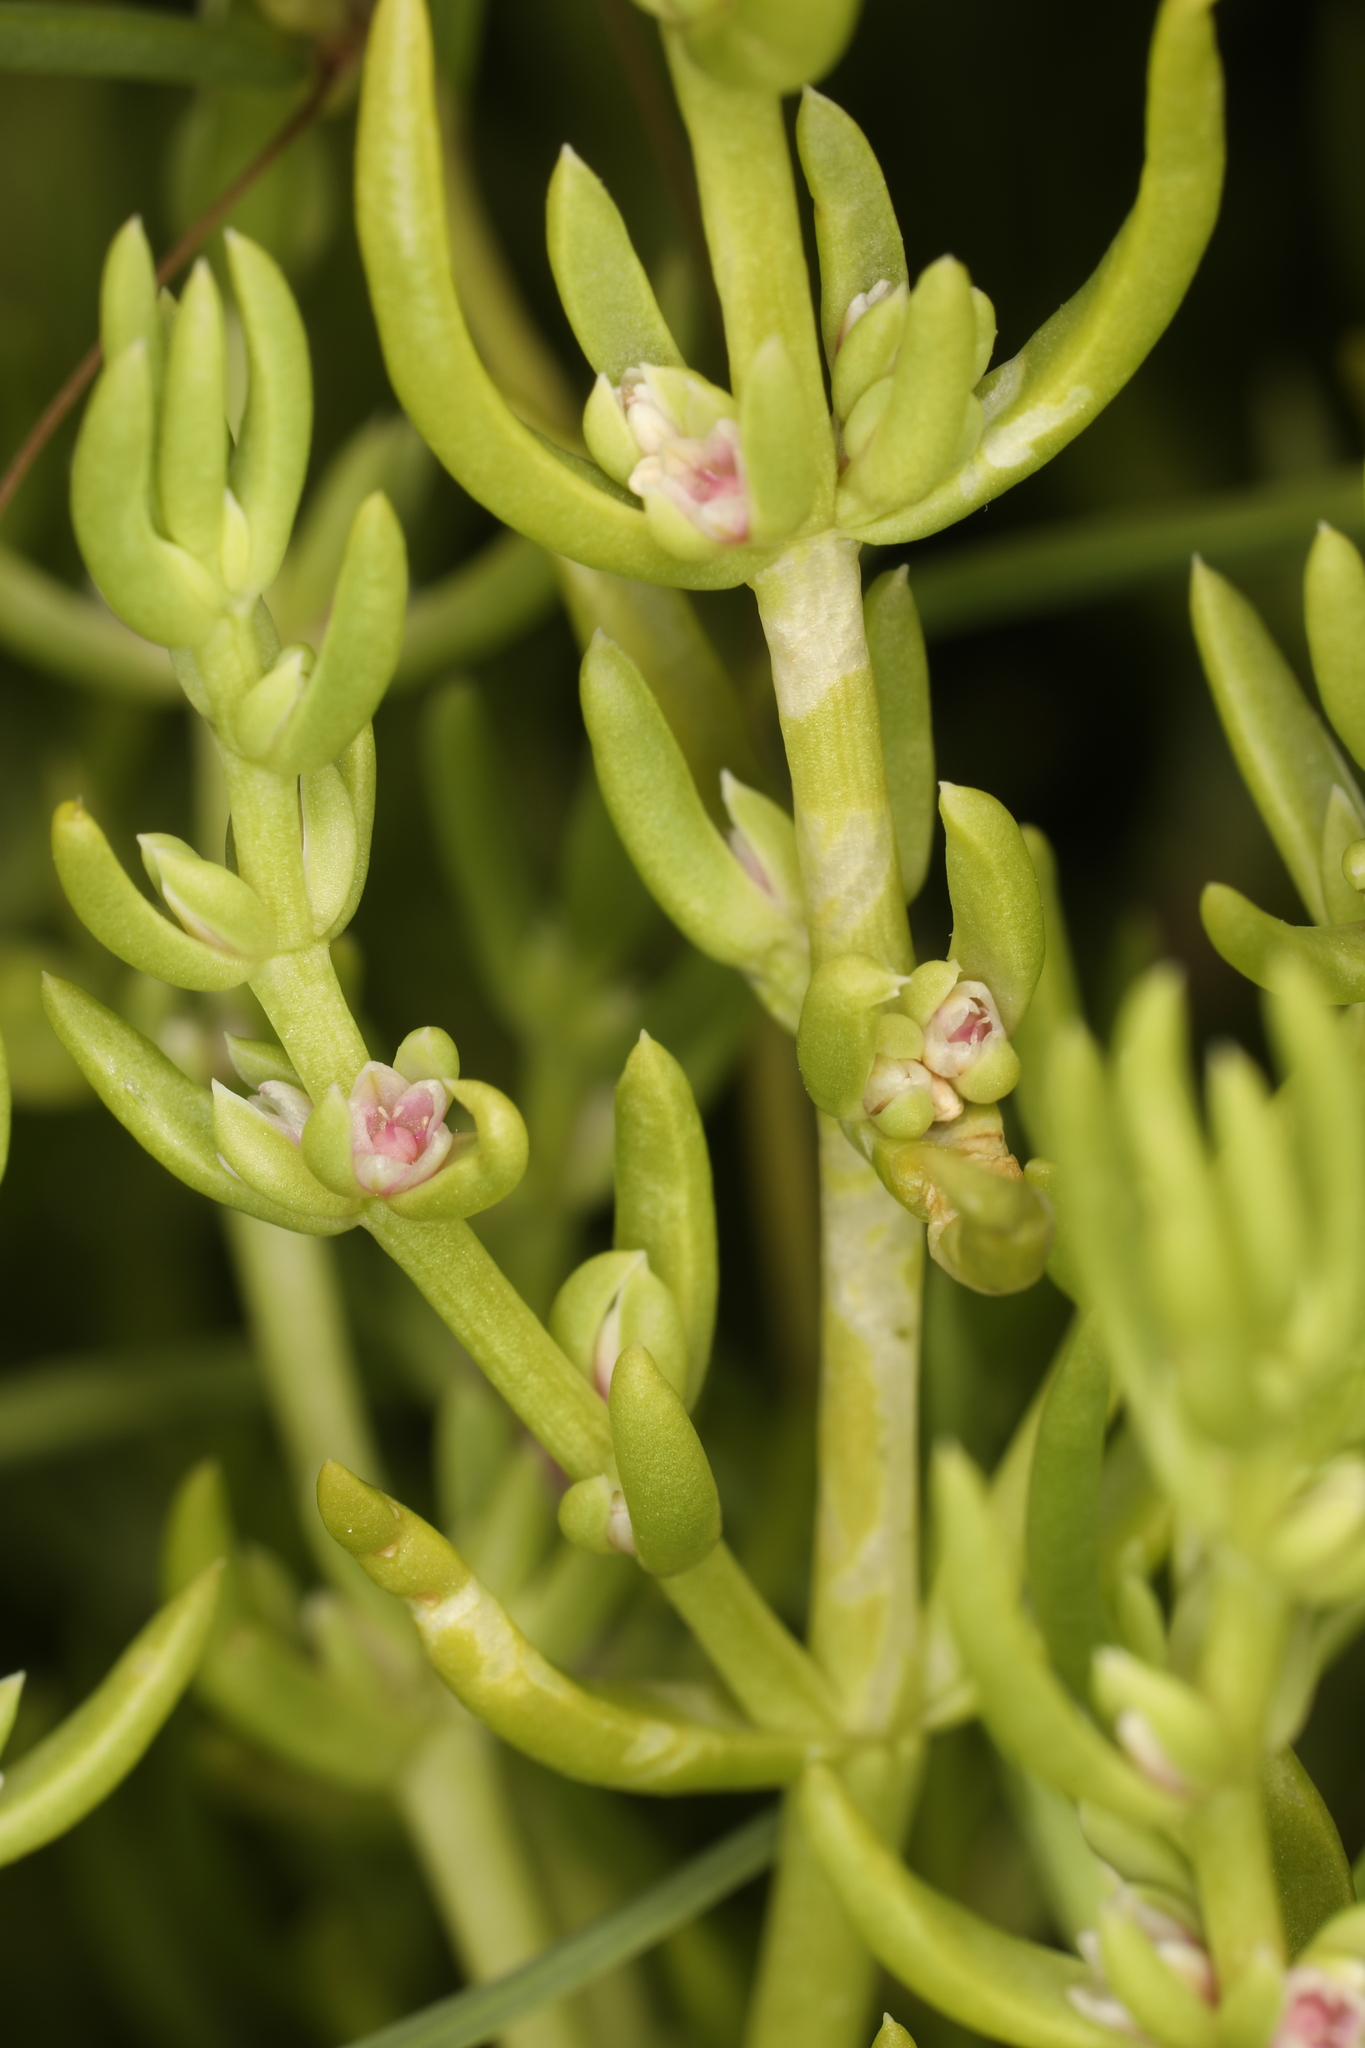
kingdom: Plantae
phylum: Tracheophyta
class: Magnoliopsida
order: Caryophyllales
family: Amaranthaceae
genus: Nitrophila
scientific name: Nitrophila occidentalis
